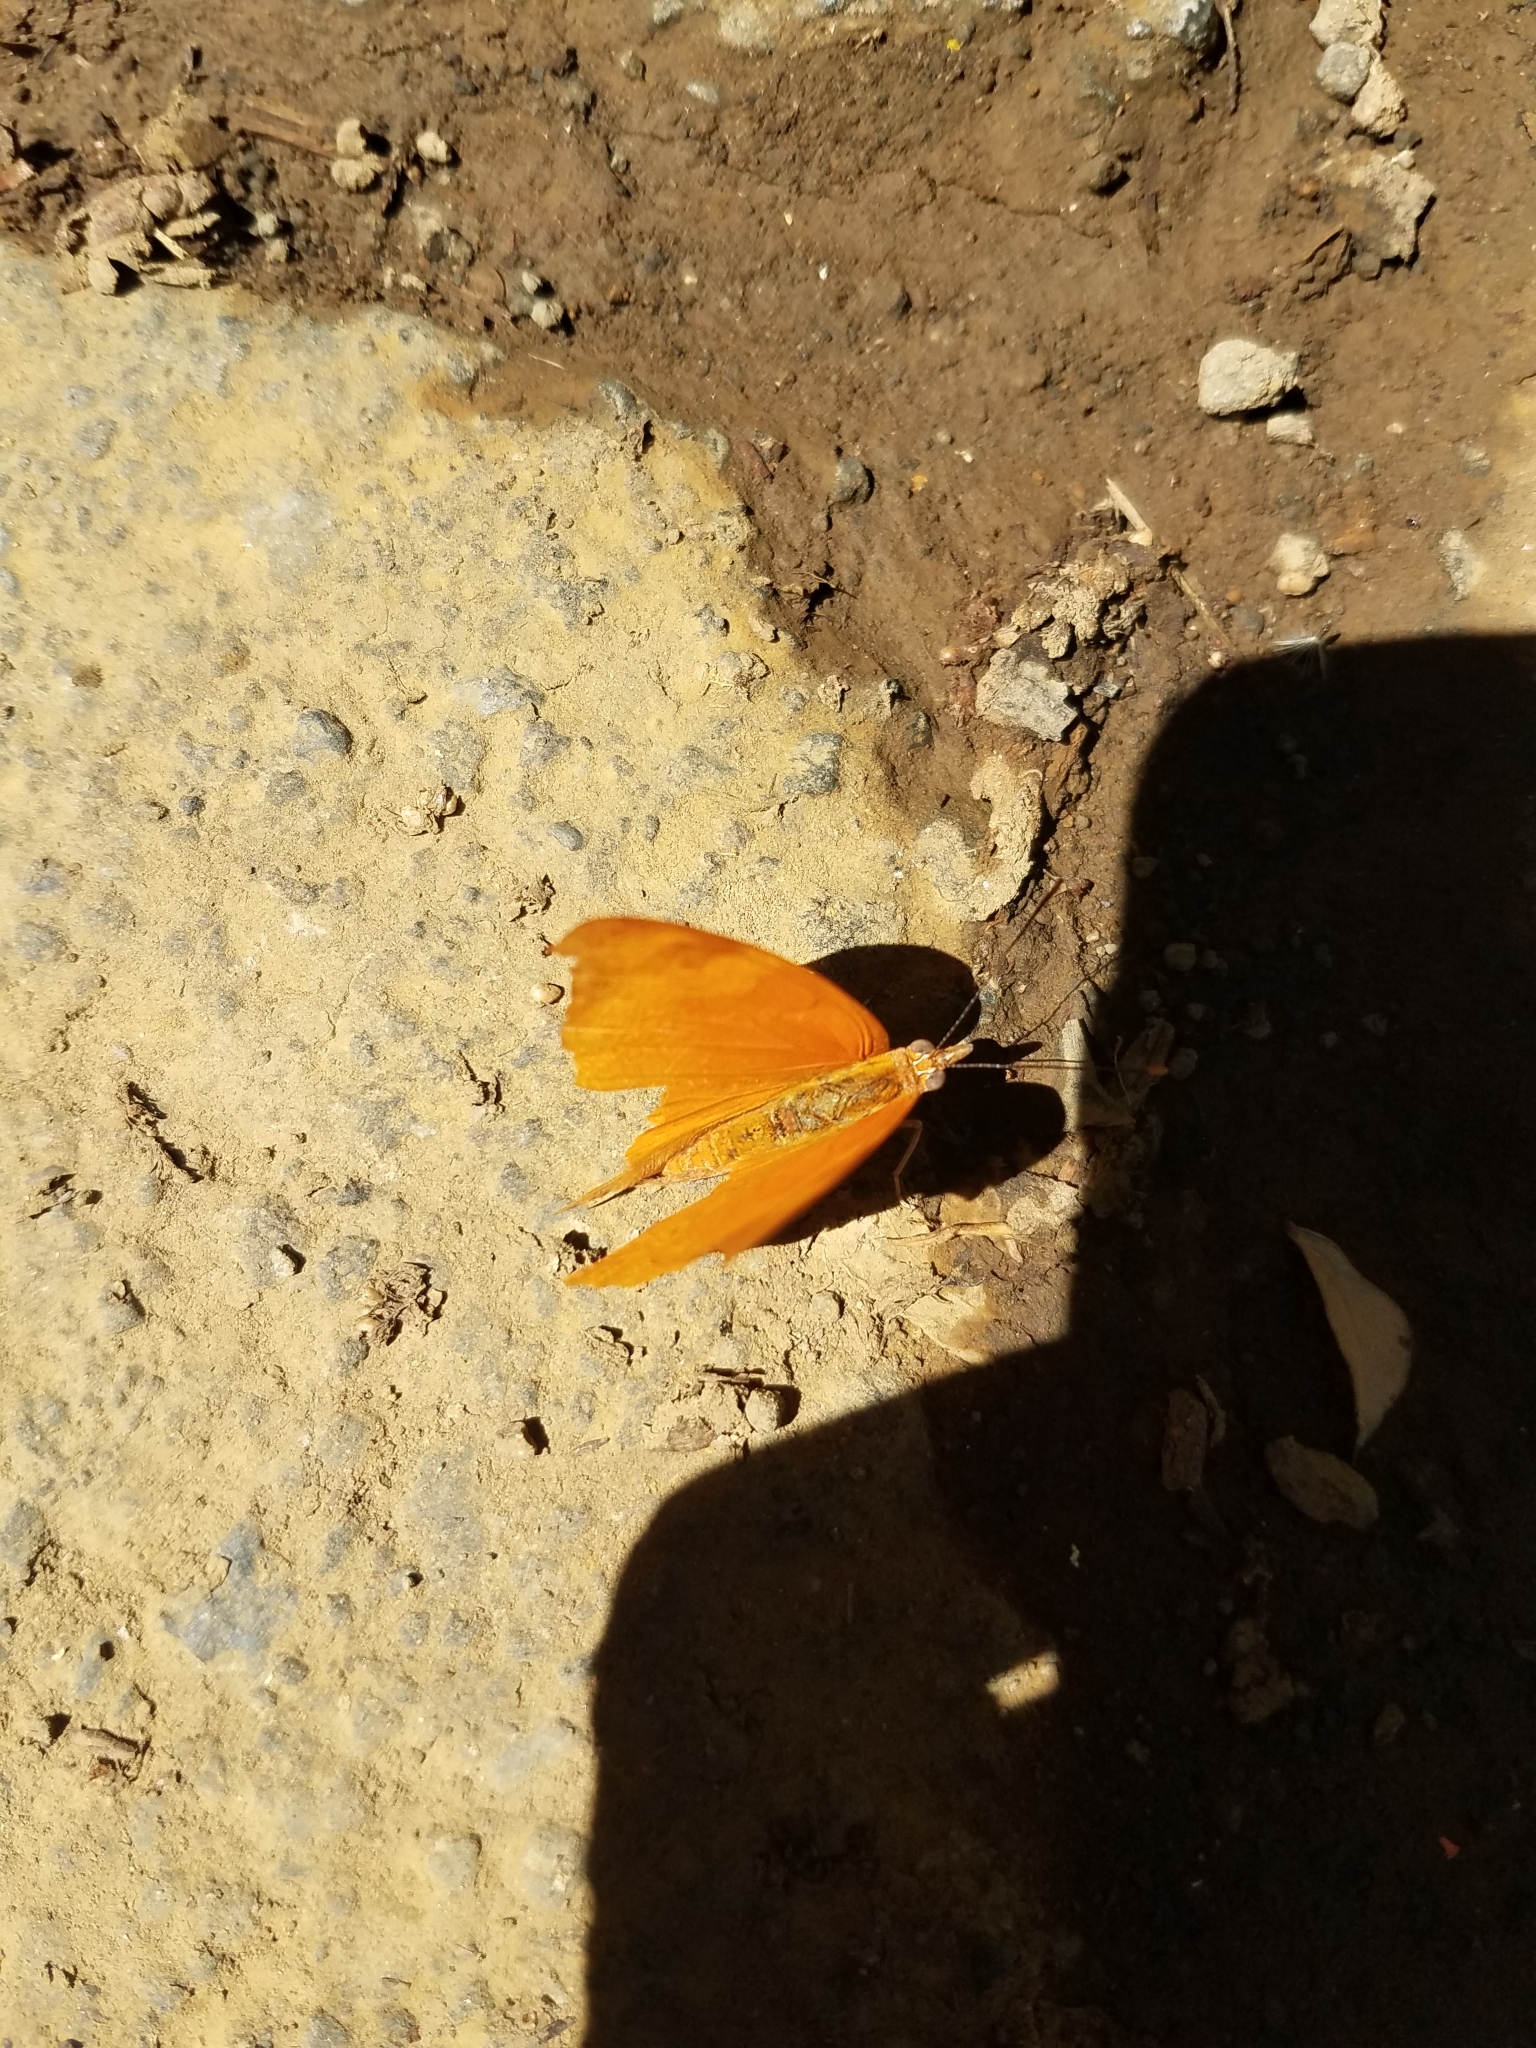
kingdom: Animalia
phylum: Arthropoda
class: Insecta
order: Lepidoptera
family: Nymphalidae
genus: Temenis
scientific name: Temenis laothoe
